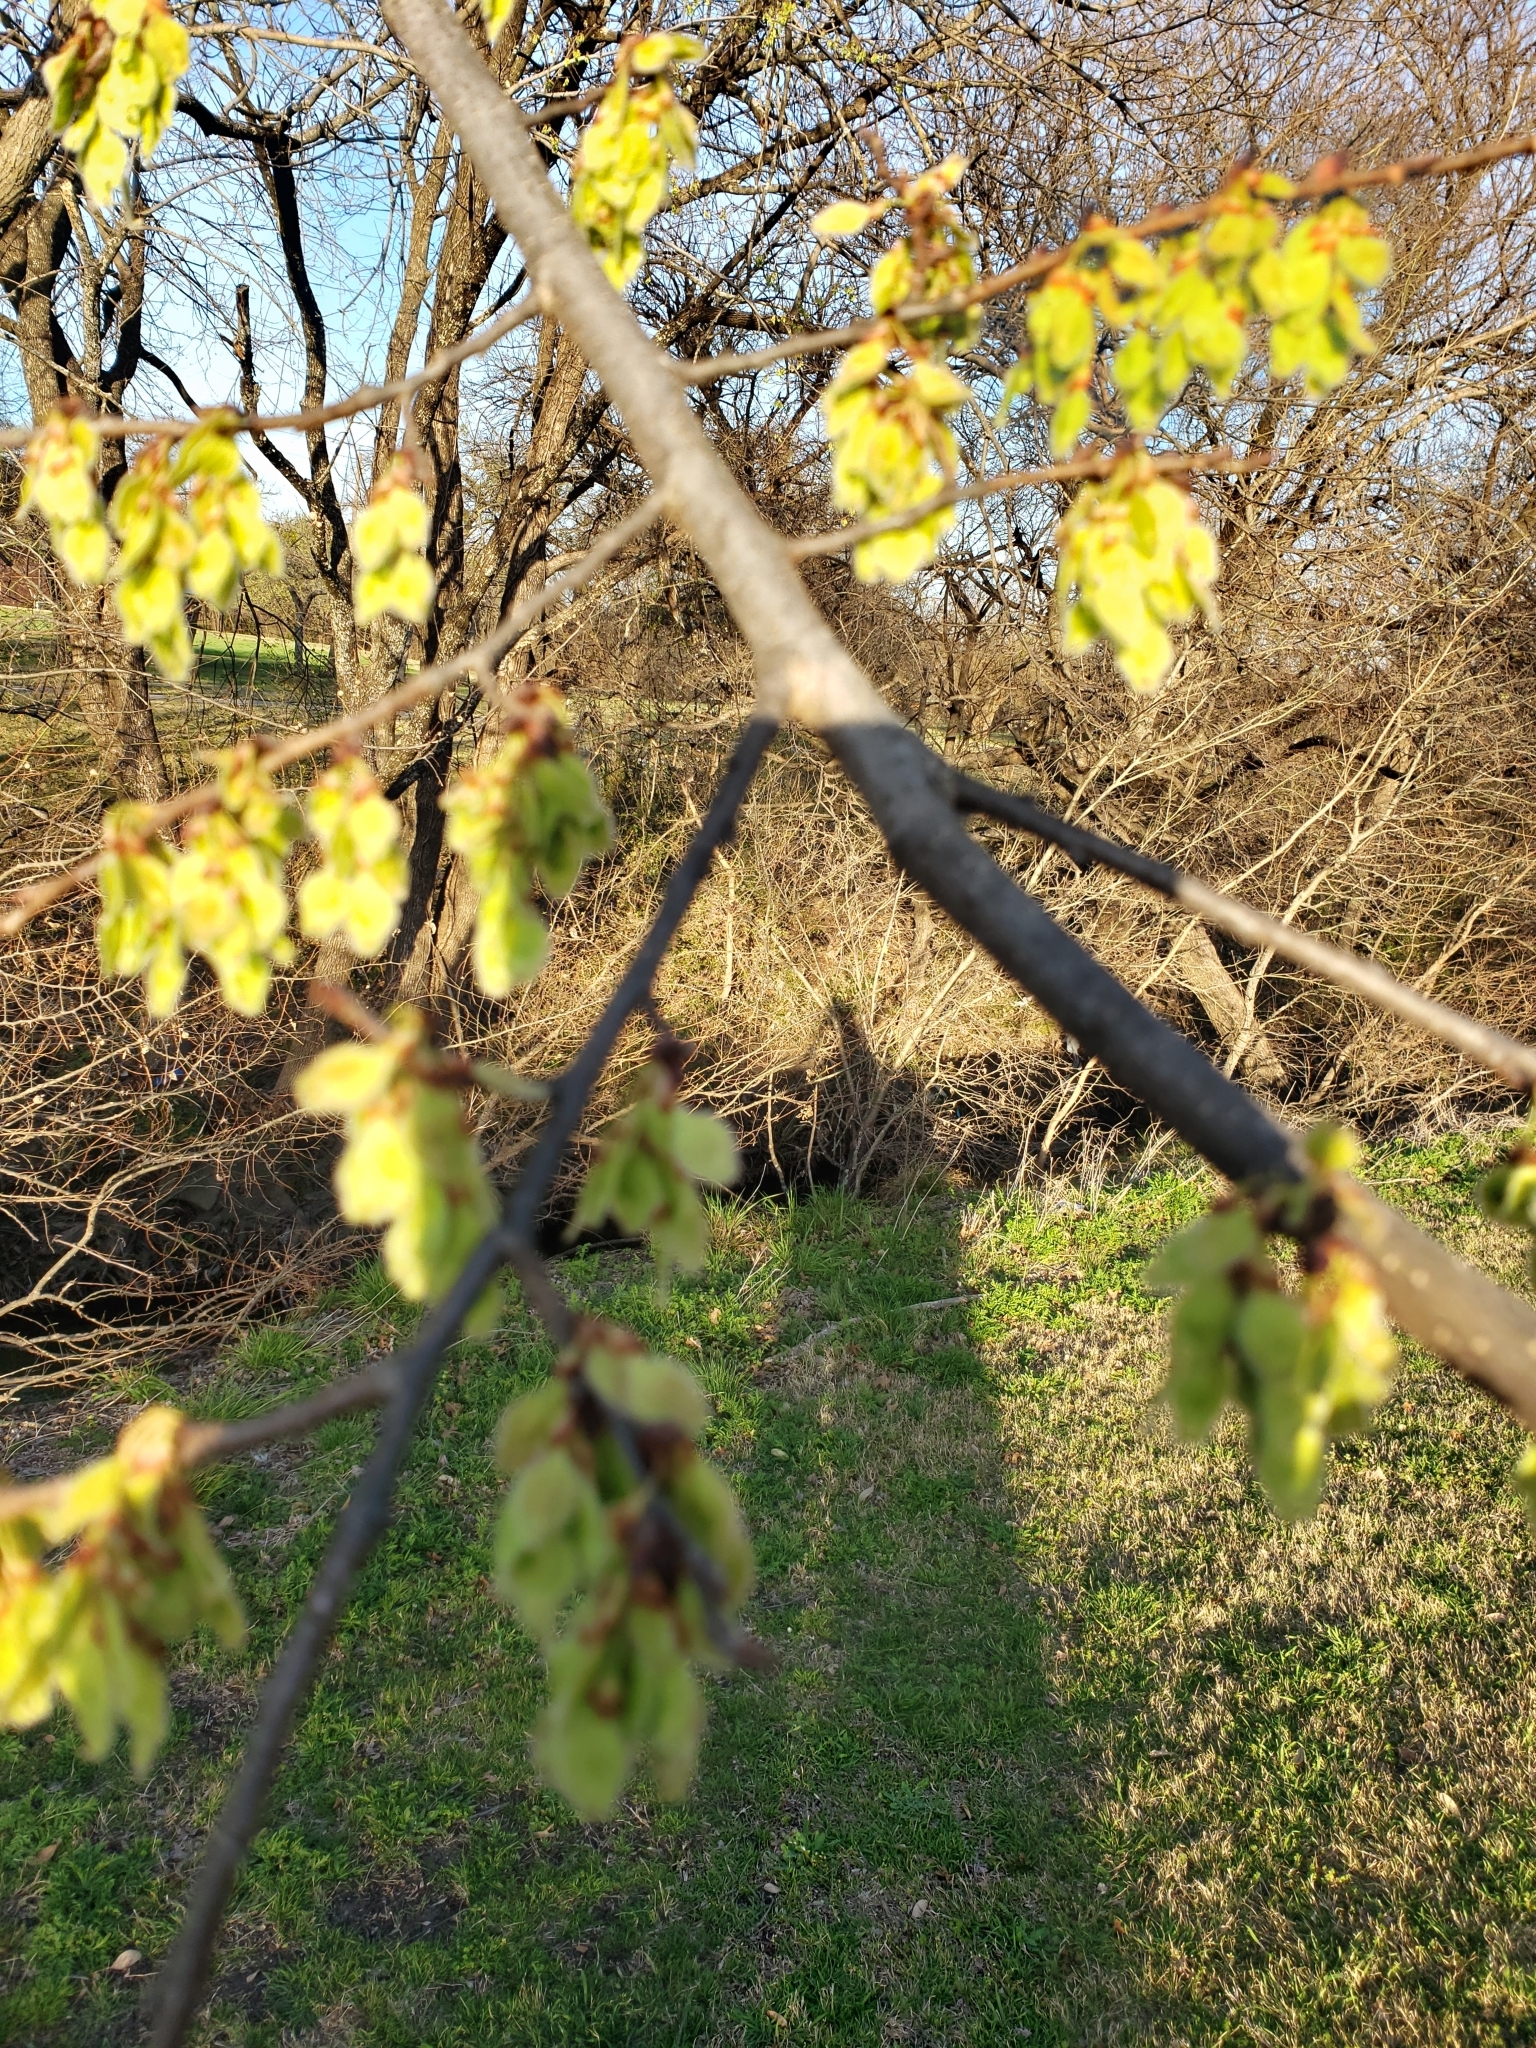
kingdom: Plantae
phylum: Tracheophyta
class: Magnoliopsida
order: Rosales
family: Ulmaceae
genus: Ulmus
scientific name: Ulmus americana
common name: American elm
